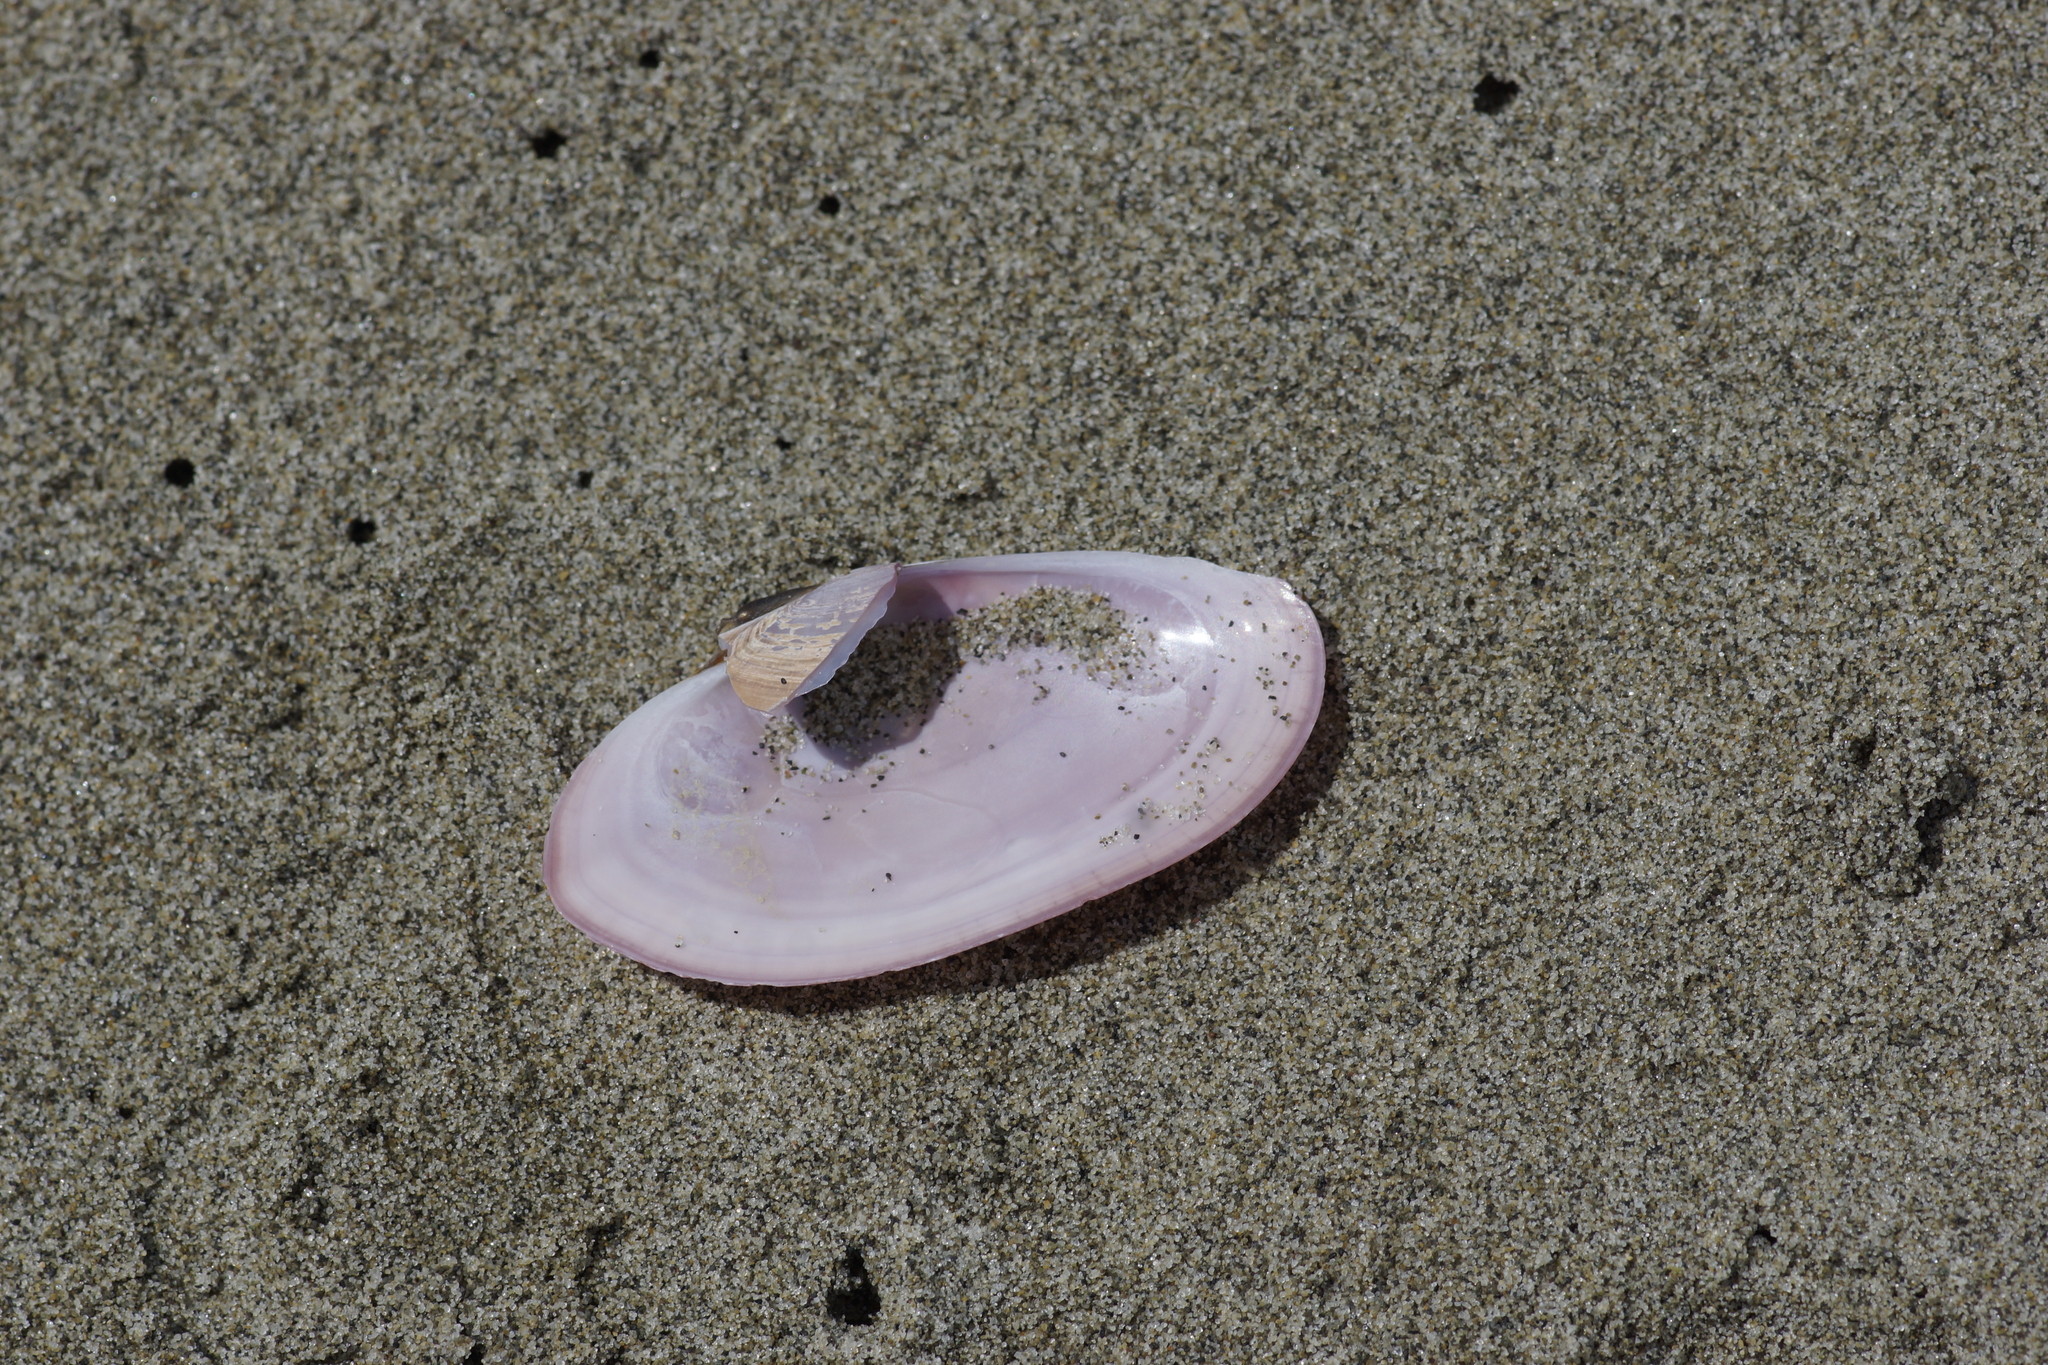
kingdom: Animalia
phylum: Mollusca
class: Bivalvia
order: Cardiida
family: Psammobiidae
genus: Gari
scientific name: Gari lineolata
